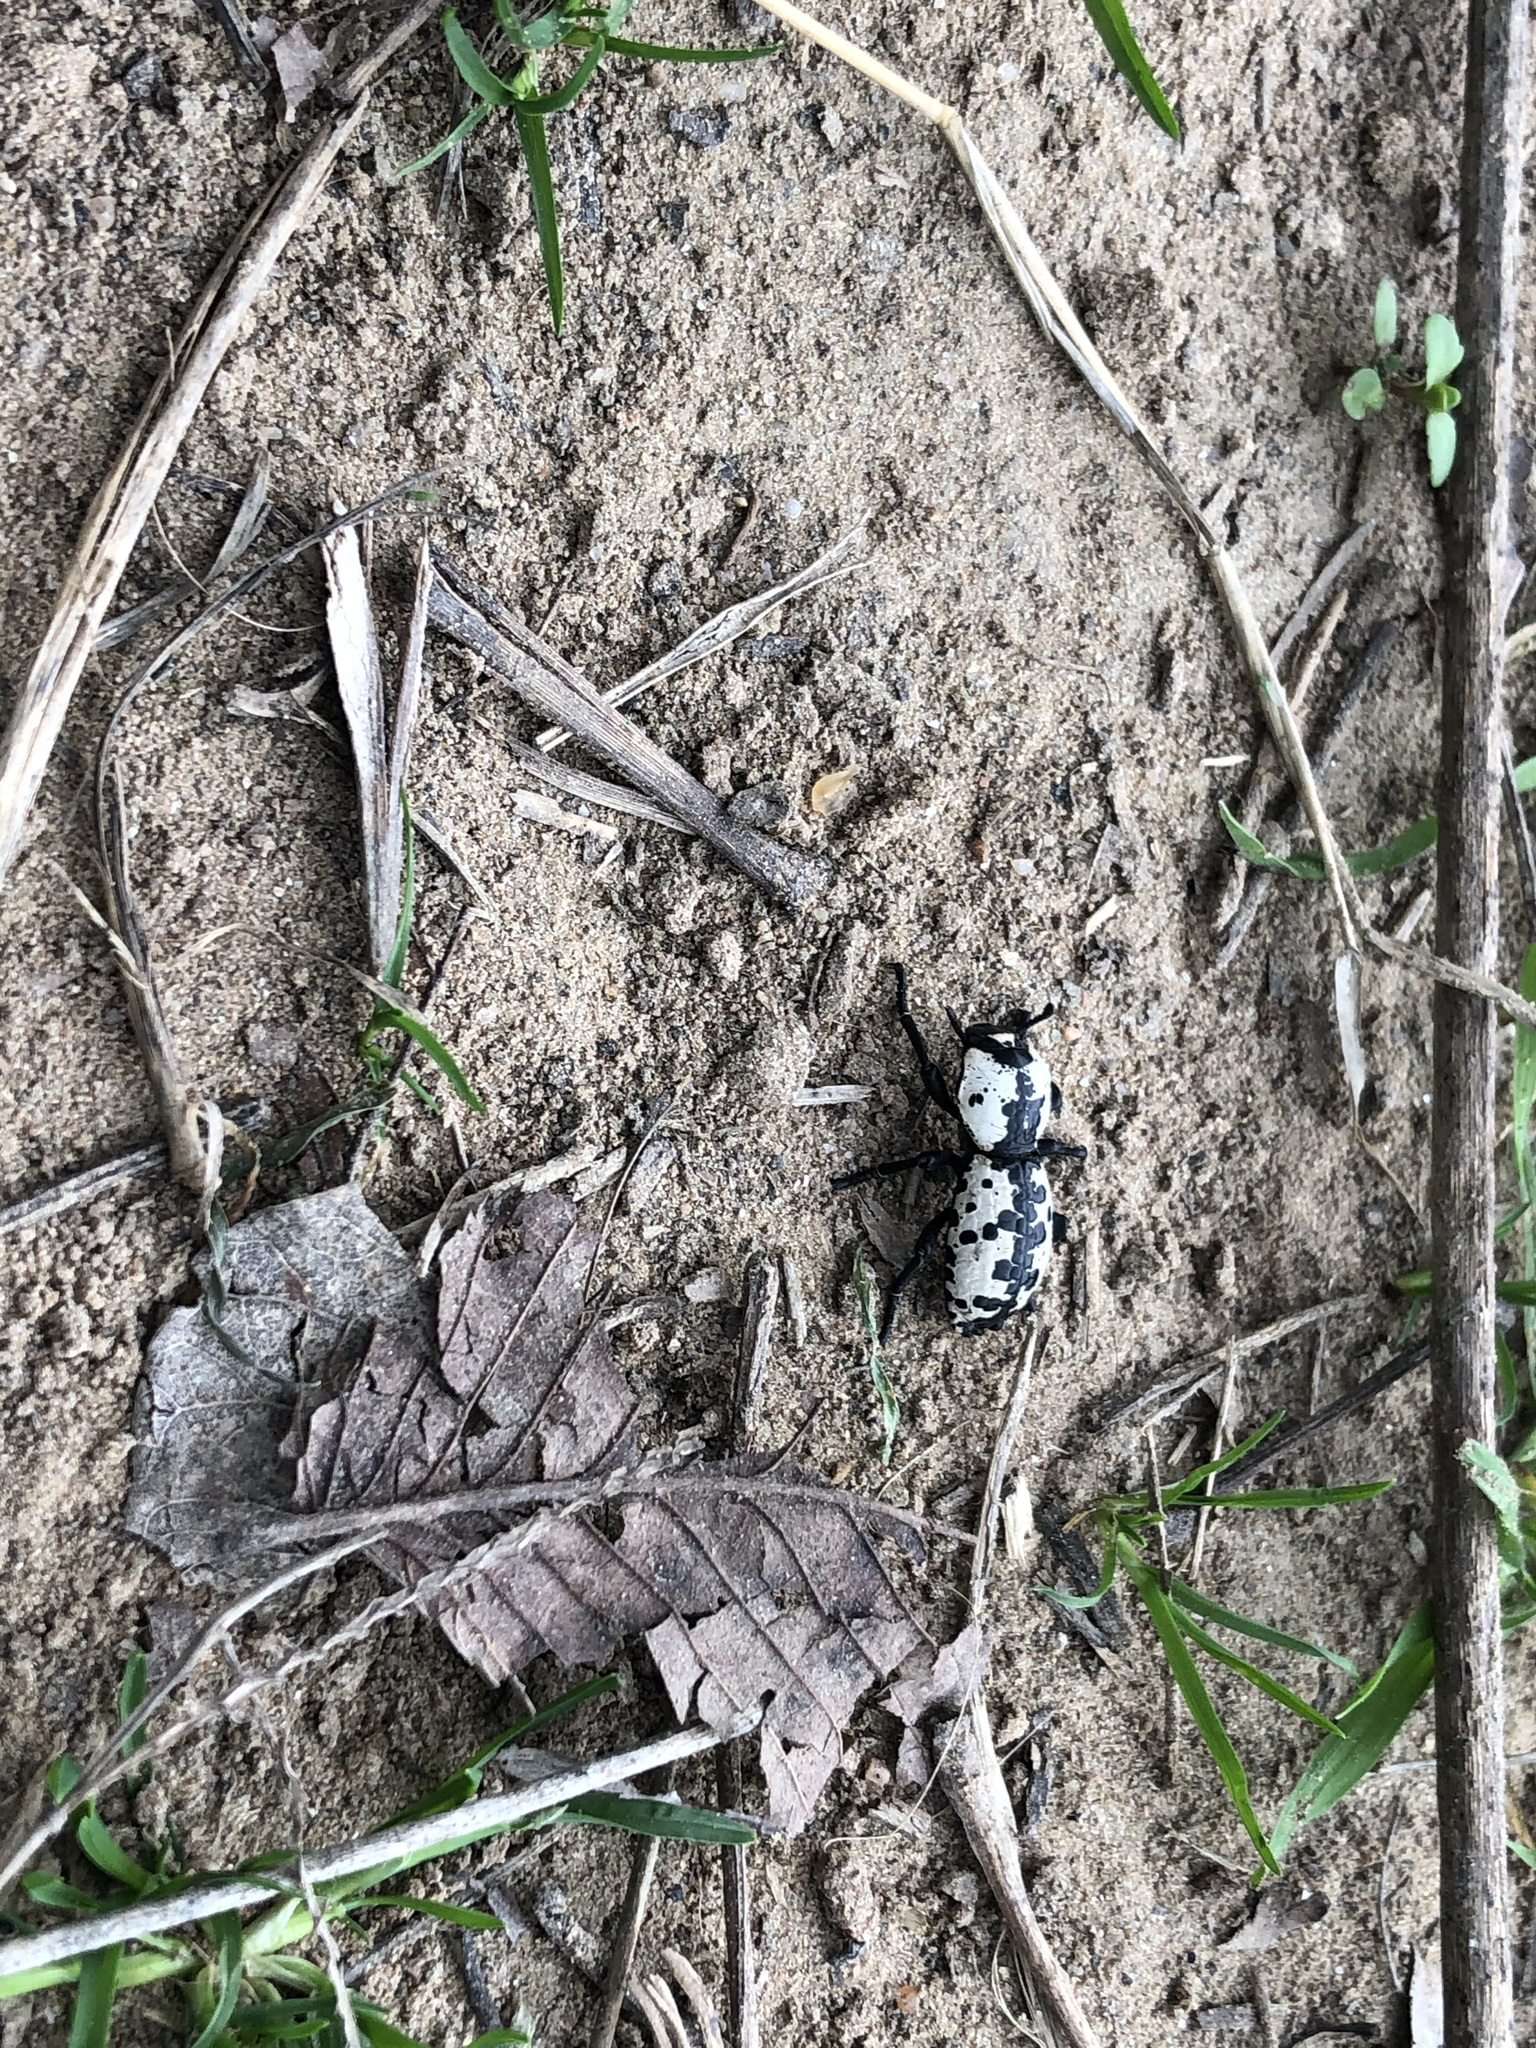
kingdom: Animalia
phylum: Arthropoda
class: Insecta
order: Coleoptera
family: Zopheridae
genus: Zopherus
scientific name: Zopherus nodulosus
